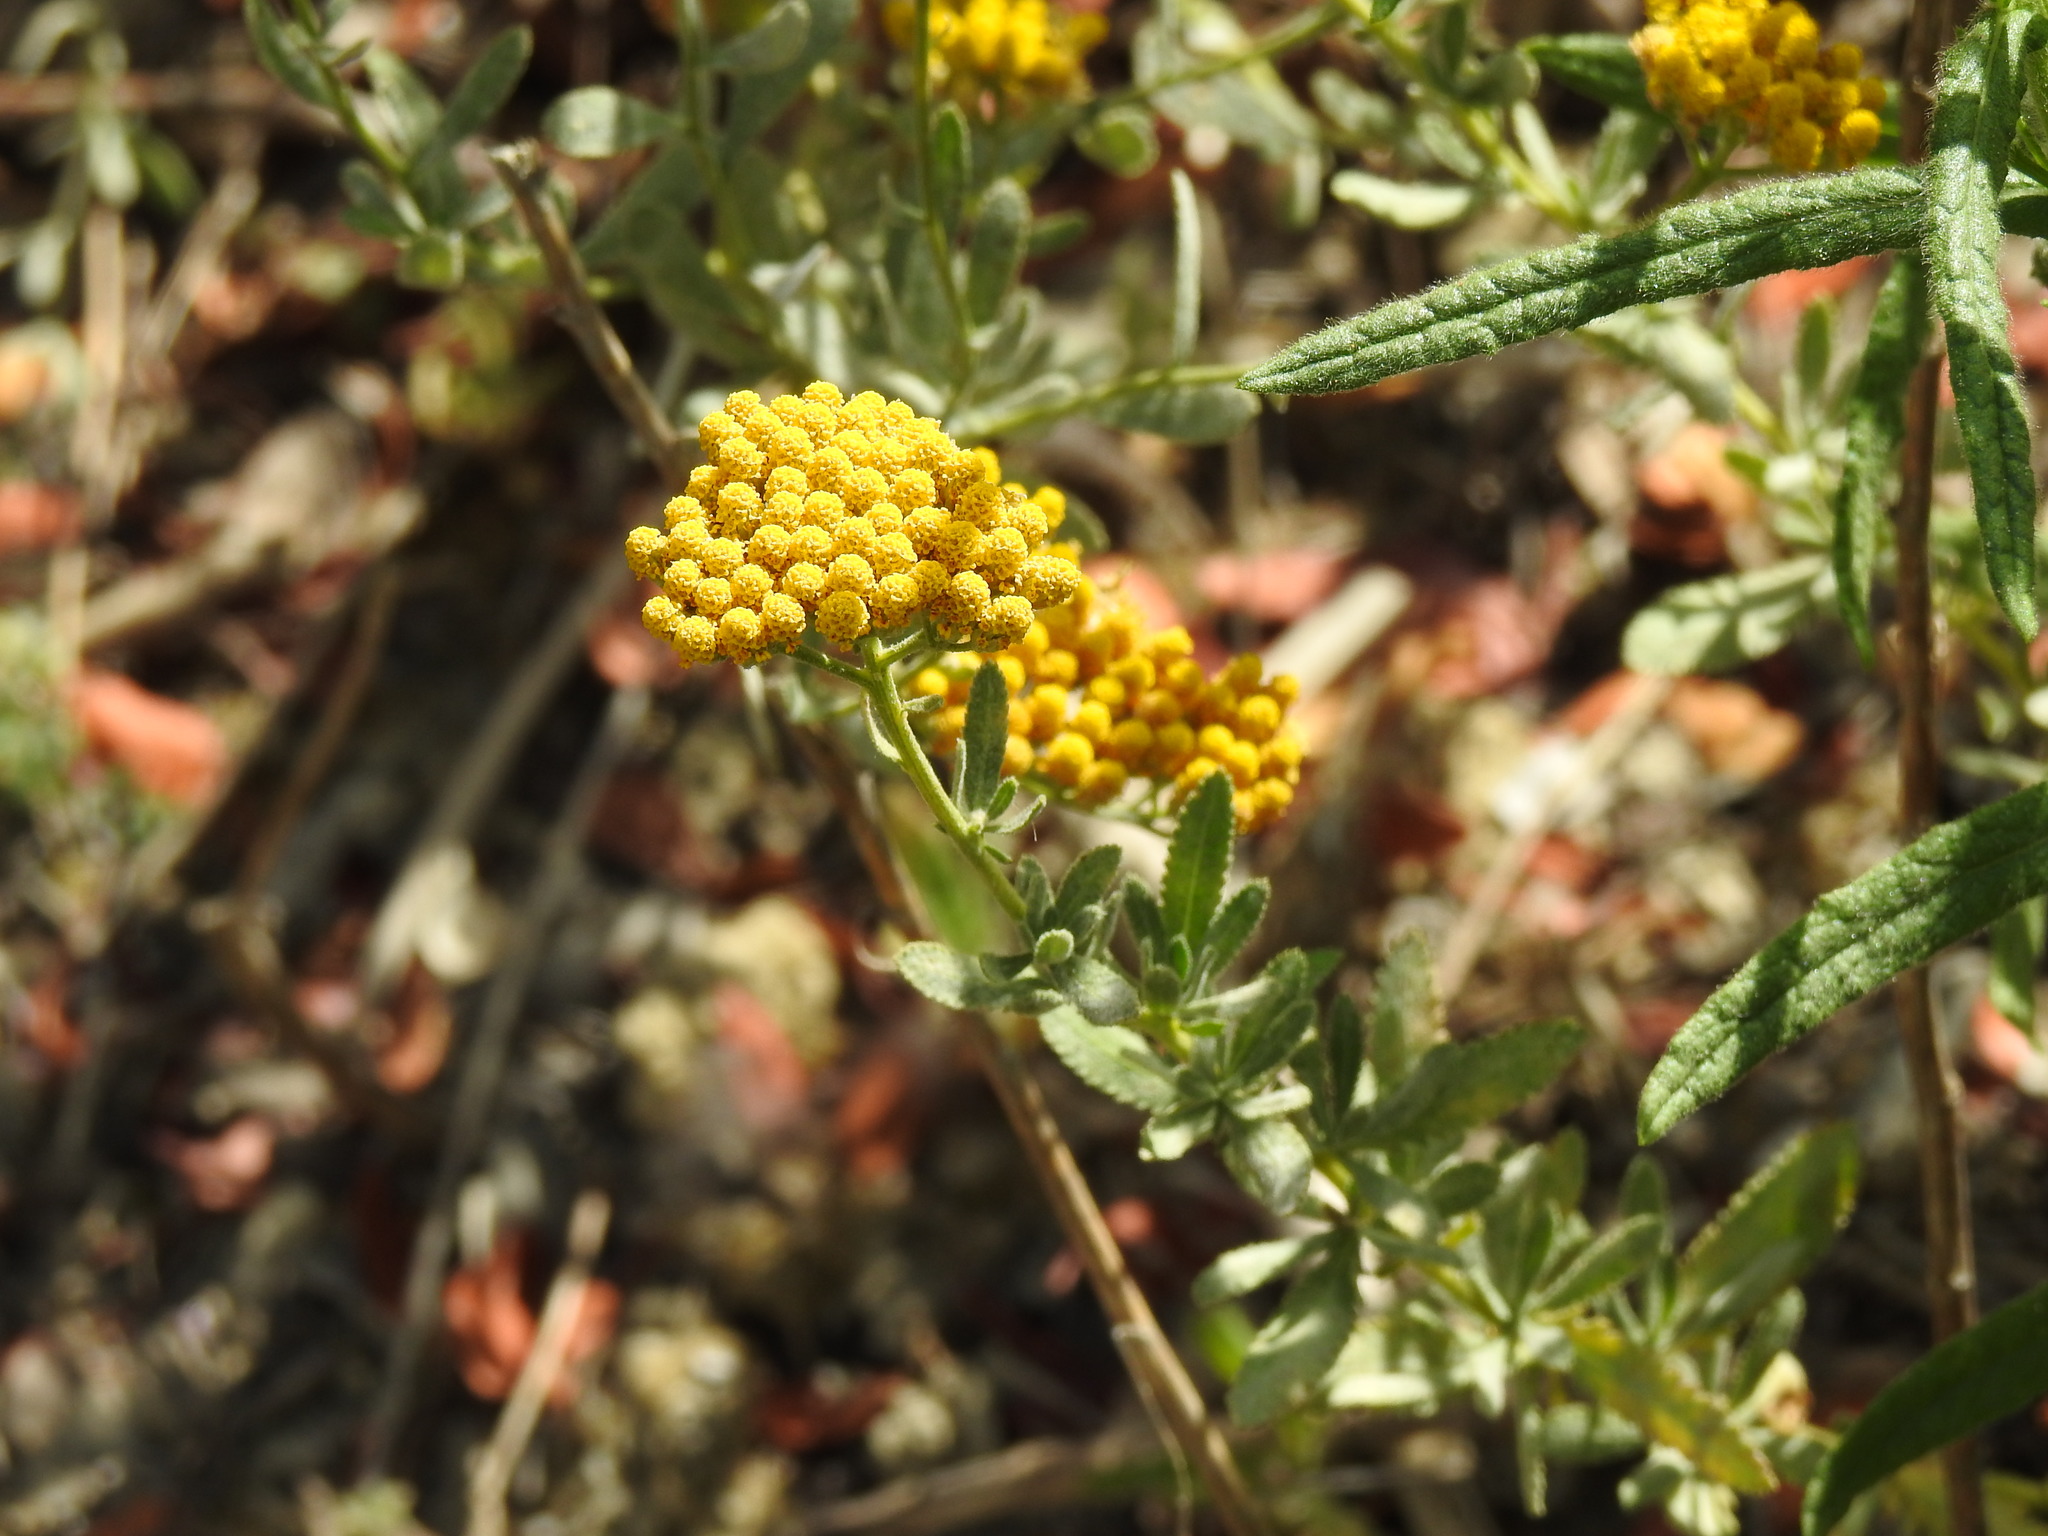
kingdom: Plantae
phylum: Tracheophyta
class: Magnoliopsida
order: Asterales
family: Asteraceae
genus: Achillea
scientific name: Achillea ageratum
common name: Sweet-nancy
